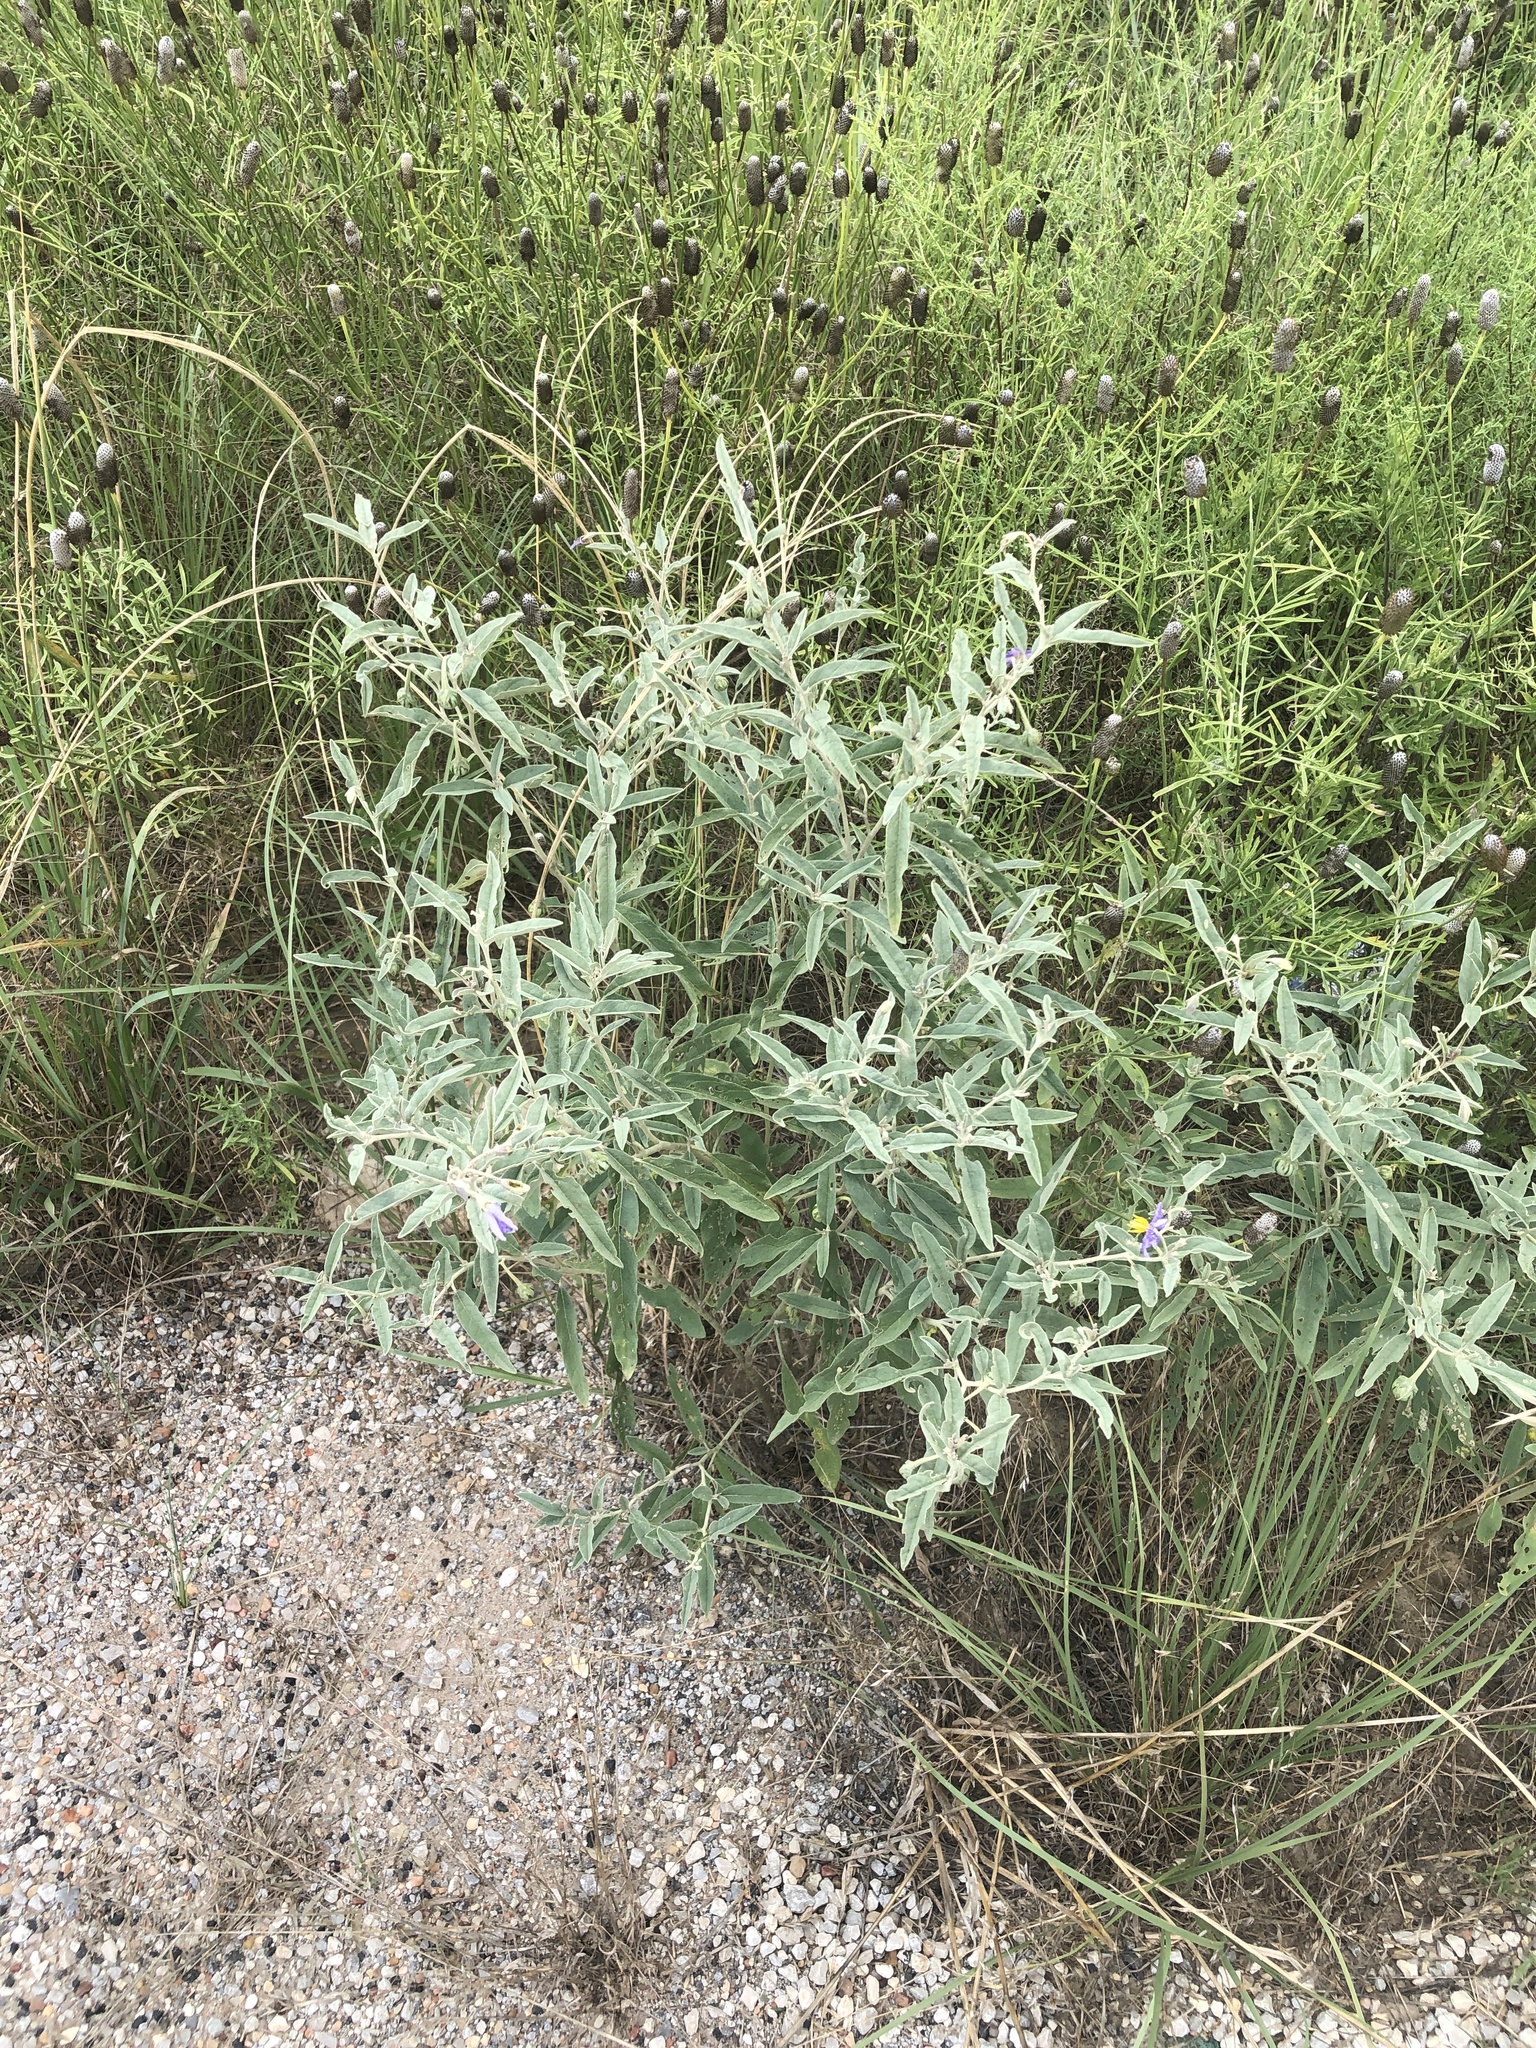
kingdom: Plantae
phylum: Tracheophyta
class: Magnoliopsida
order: Solanales
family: Solanaceae
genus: Solanum
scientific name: Solanum elaeagnifolium
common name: Silverleaf nightshade
